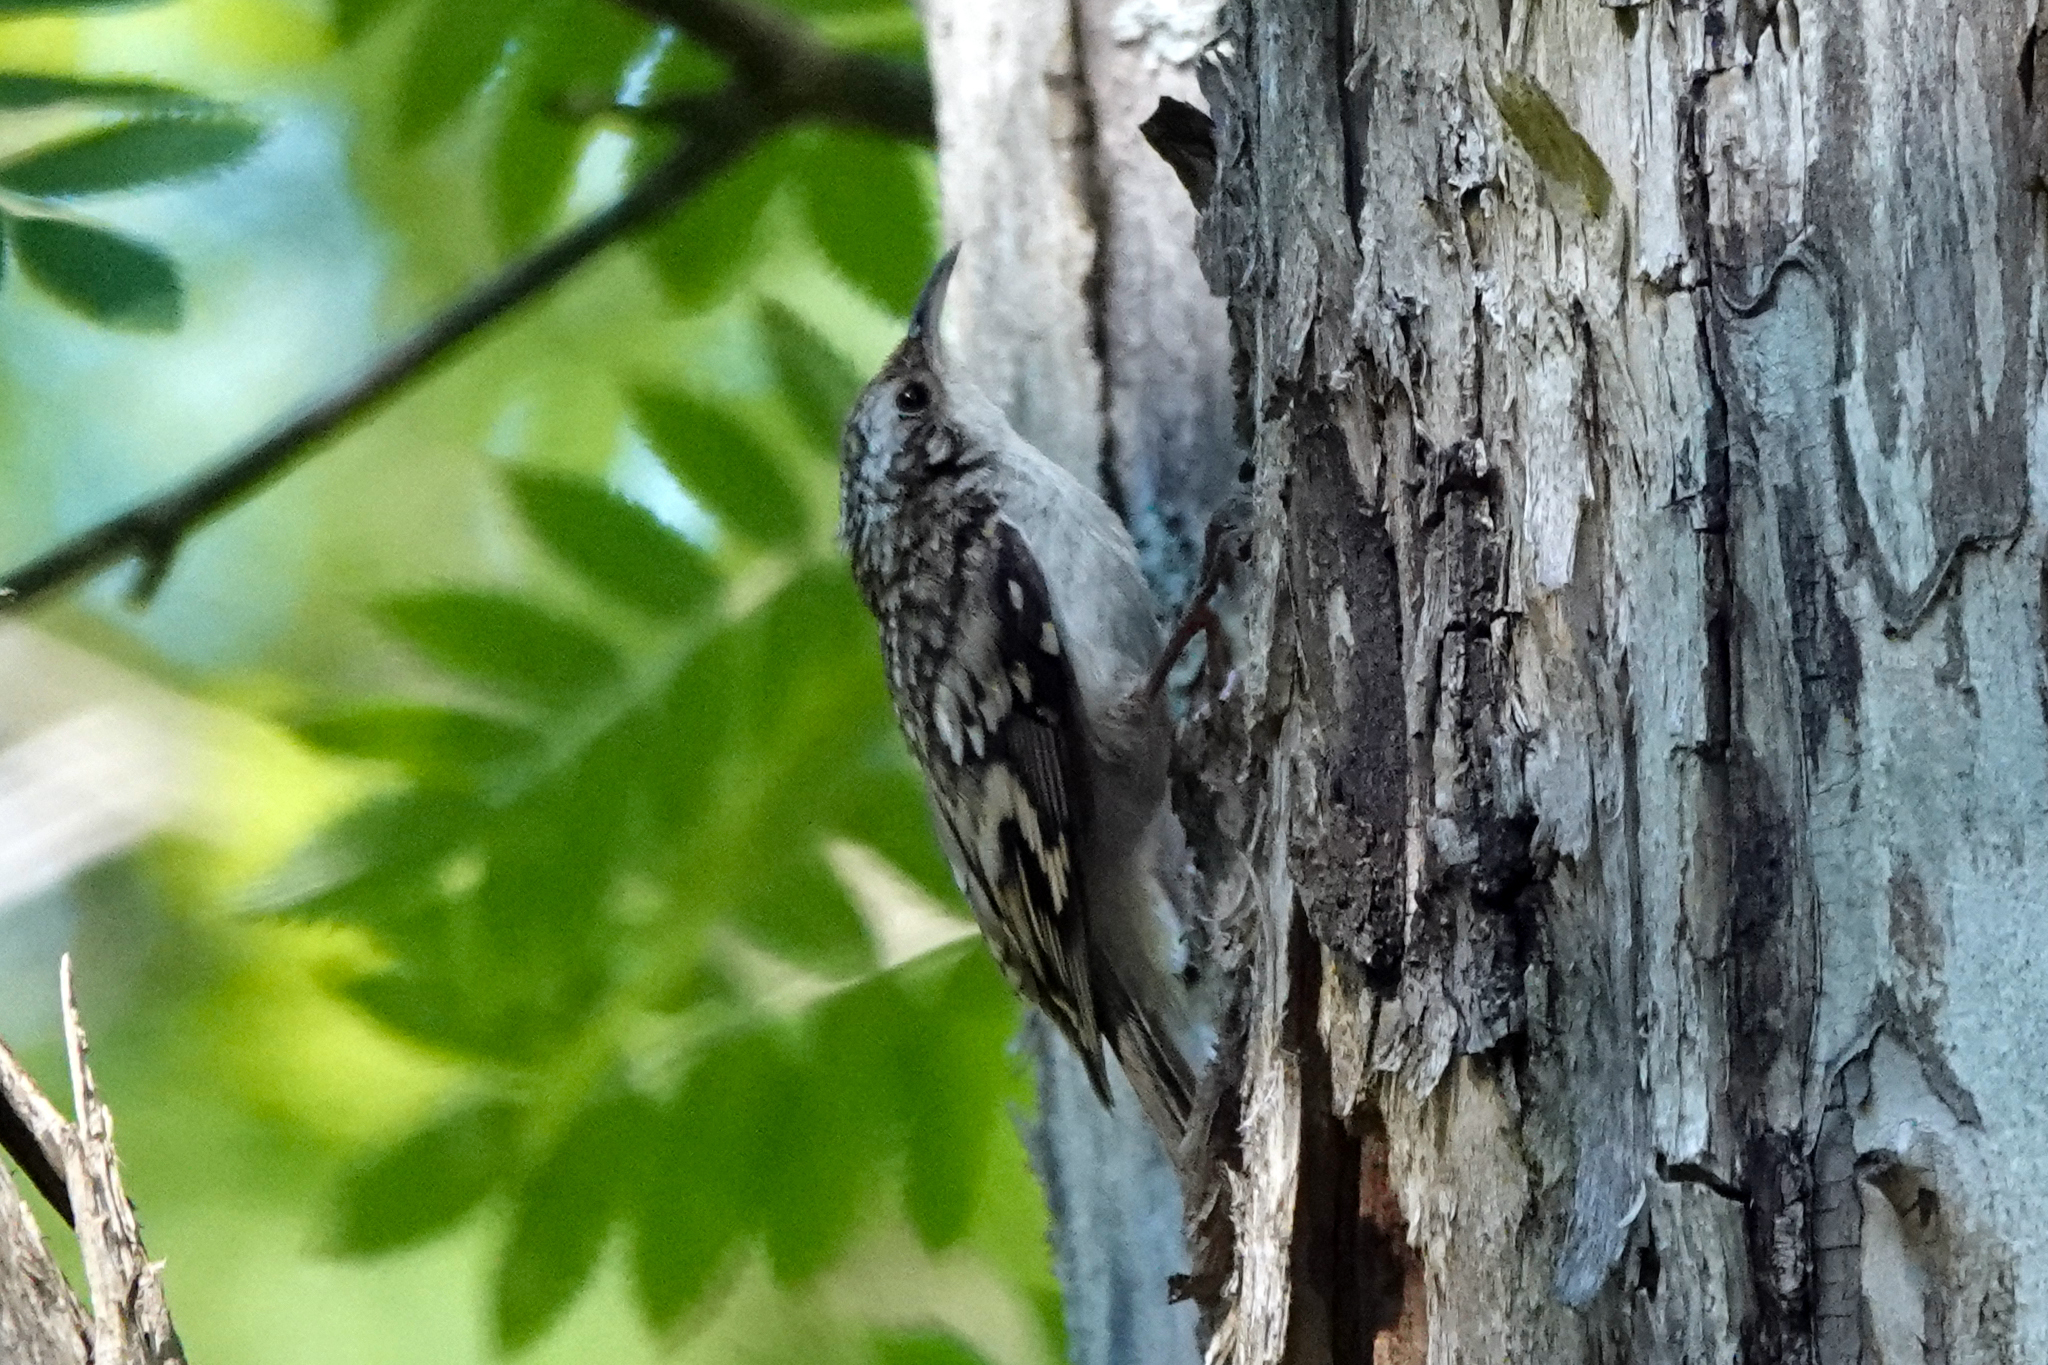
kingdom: Animalia
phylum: Chordata
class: Aves
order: Passeriformes
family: Certhiidae
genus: Certhia
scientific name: Certhia familiaris
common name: Eurasian treecreeper
